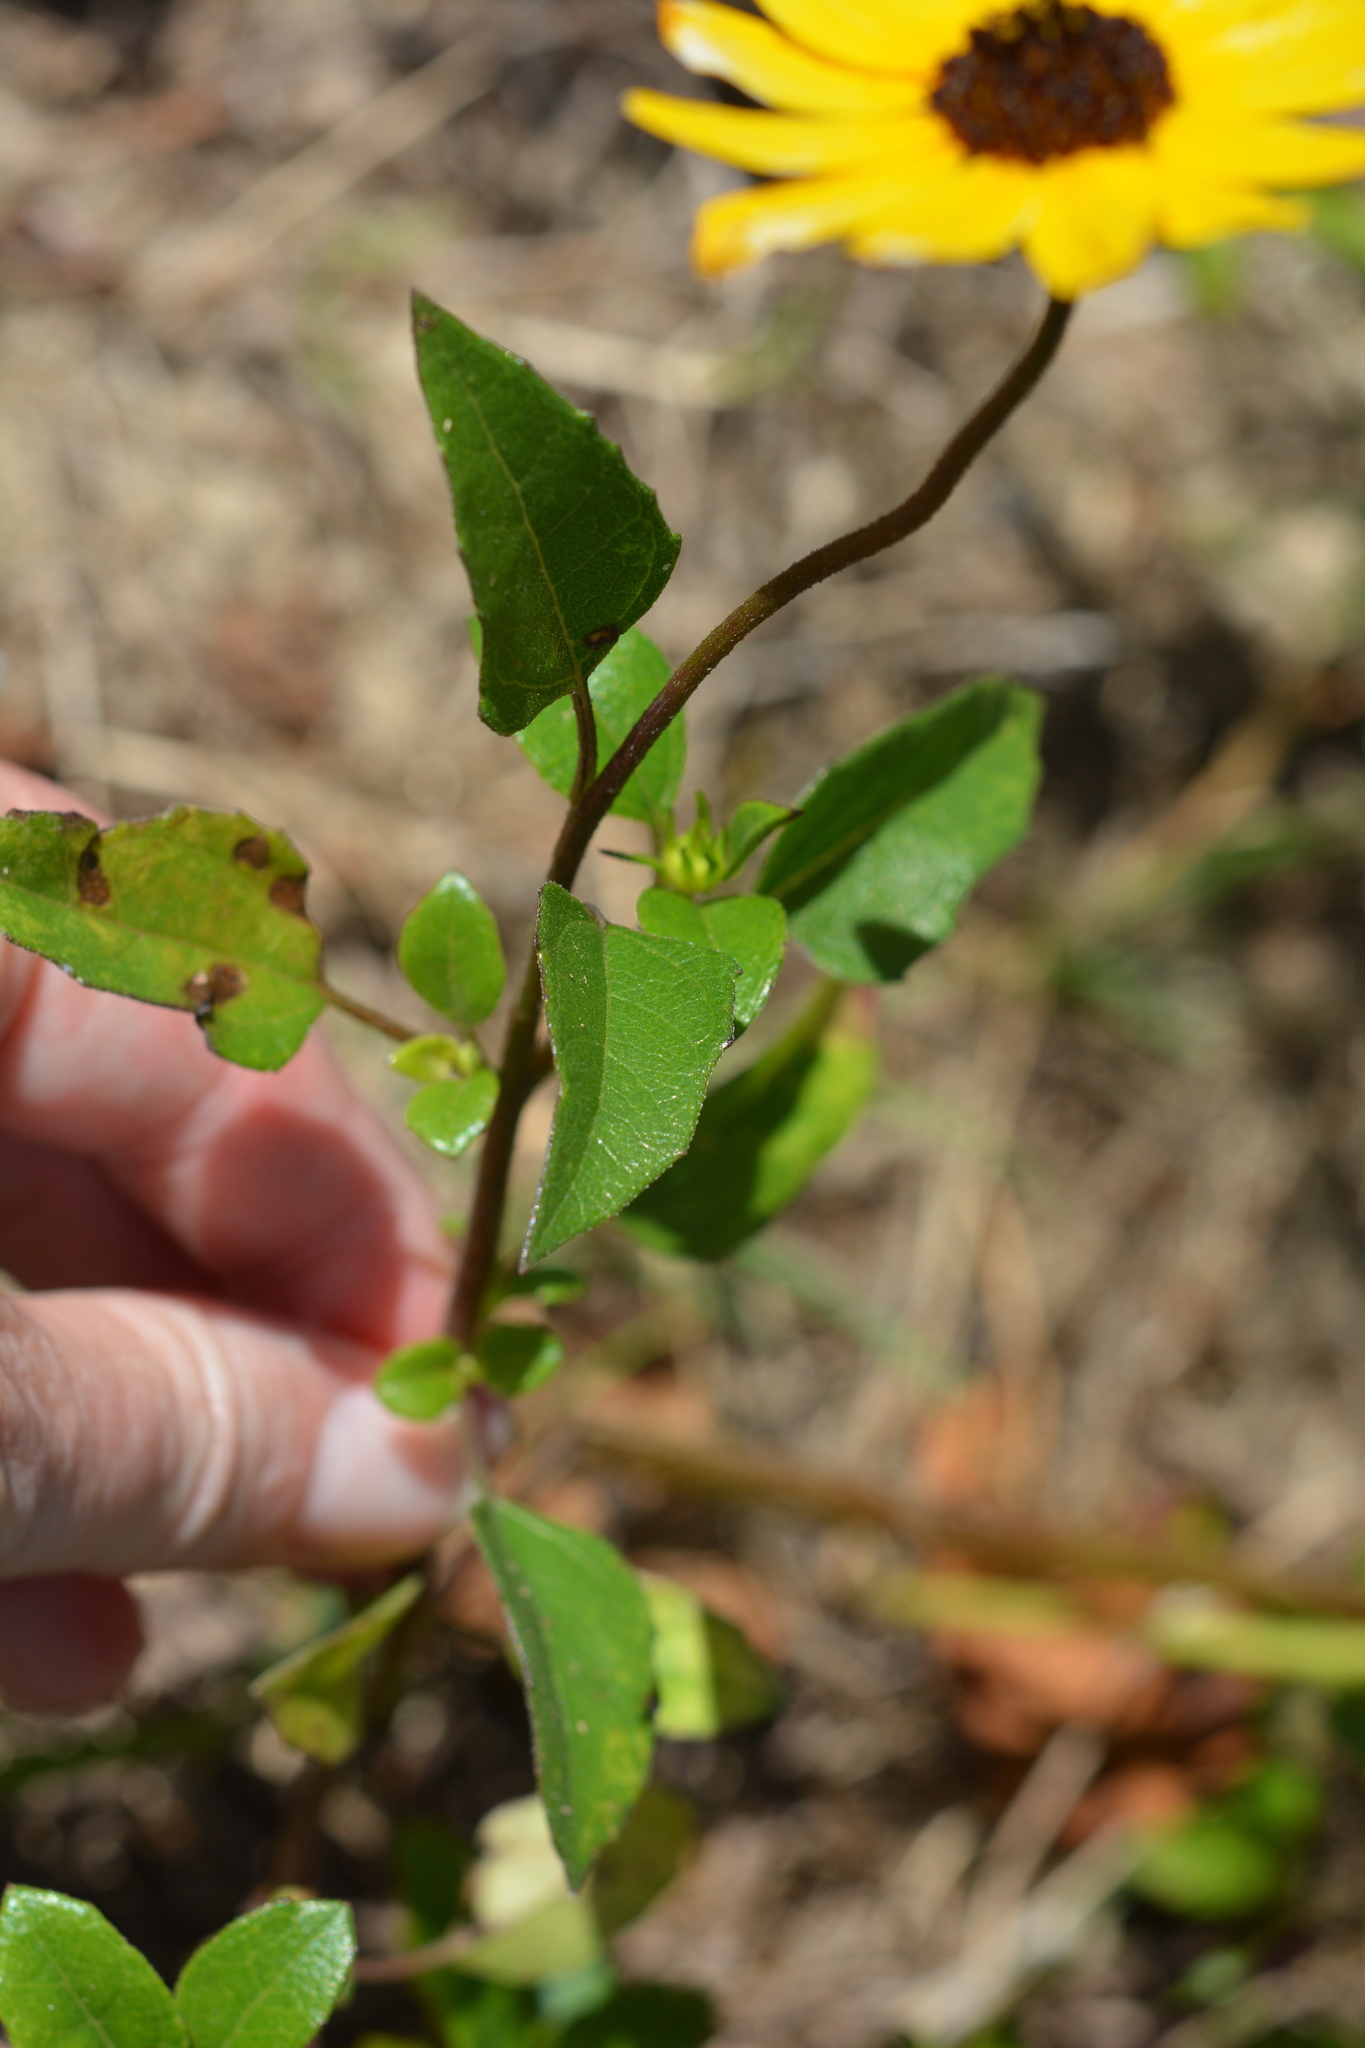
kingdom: Plantae
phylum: Tracheophyta
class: Magnoliopsida
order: Asterales
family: Asteraceae
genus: Helianthus
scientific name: Helianthus debilis
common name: Weak sunflower
